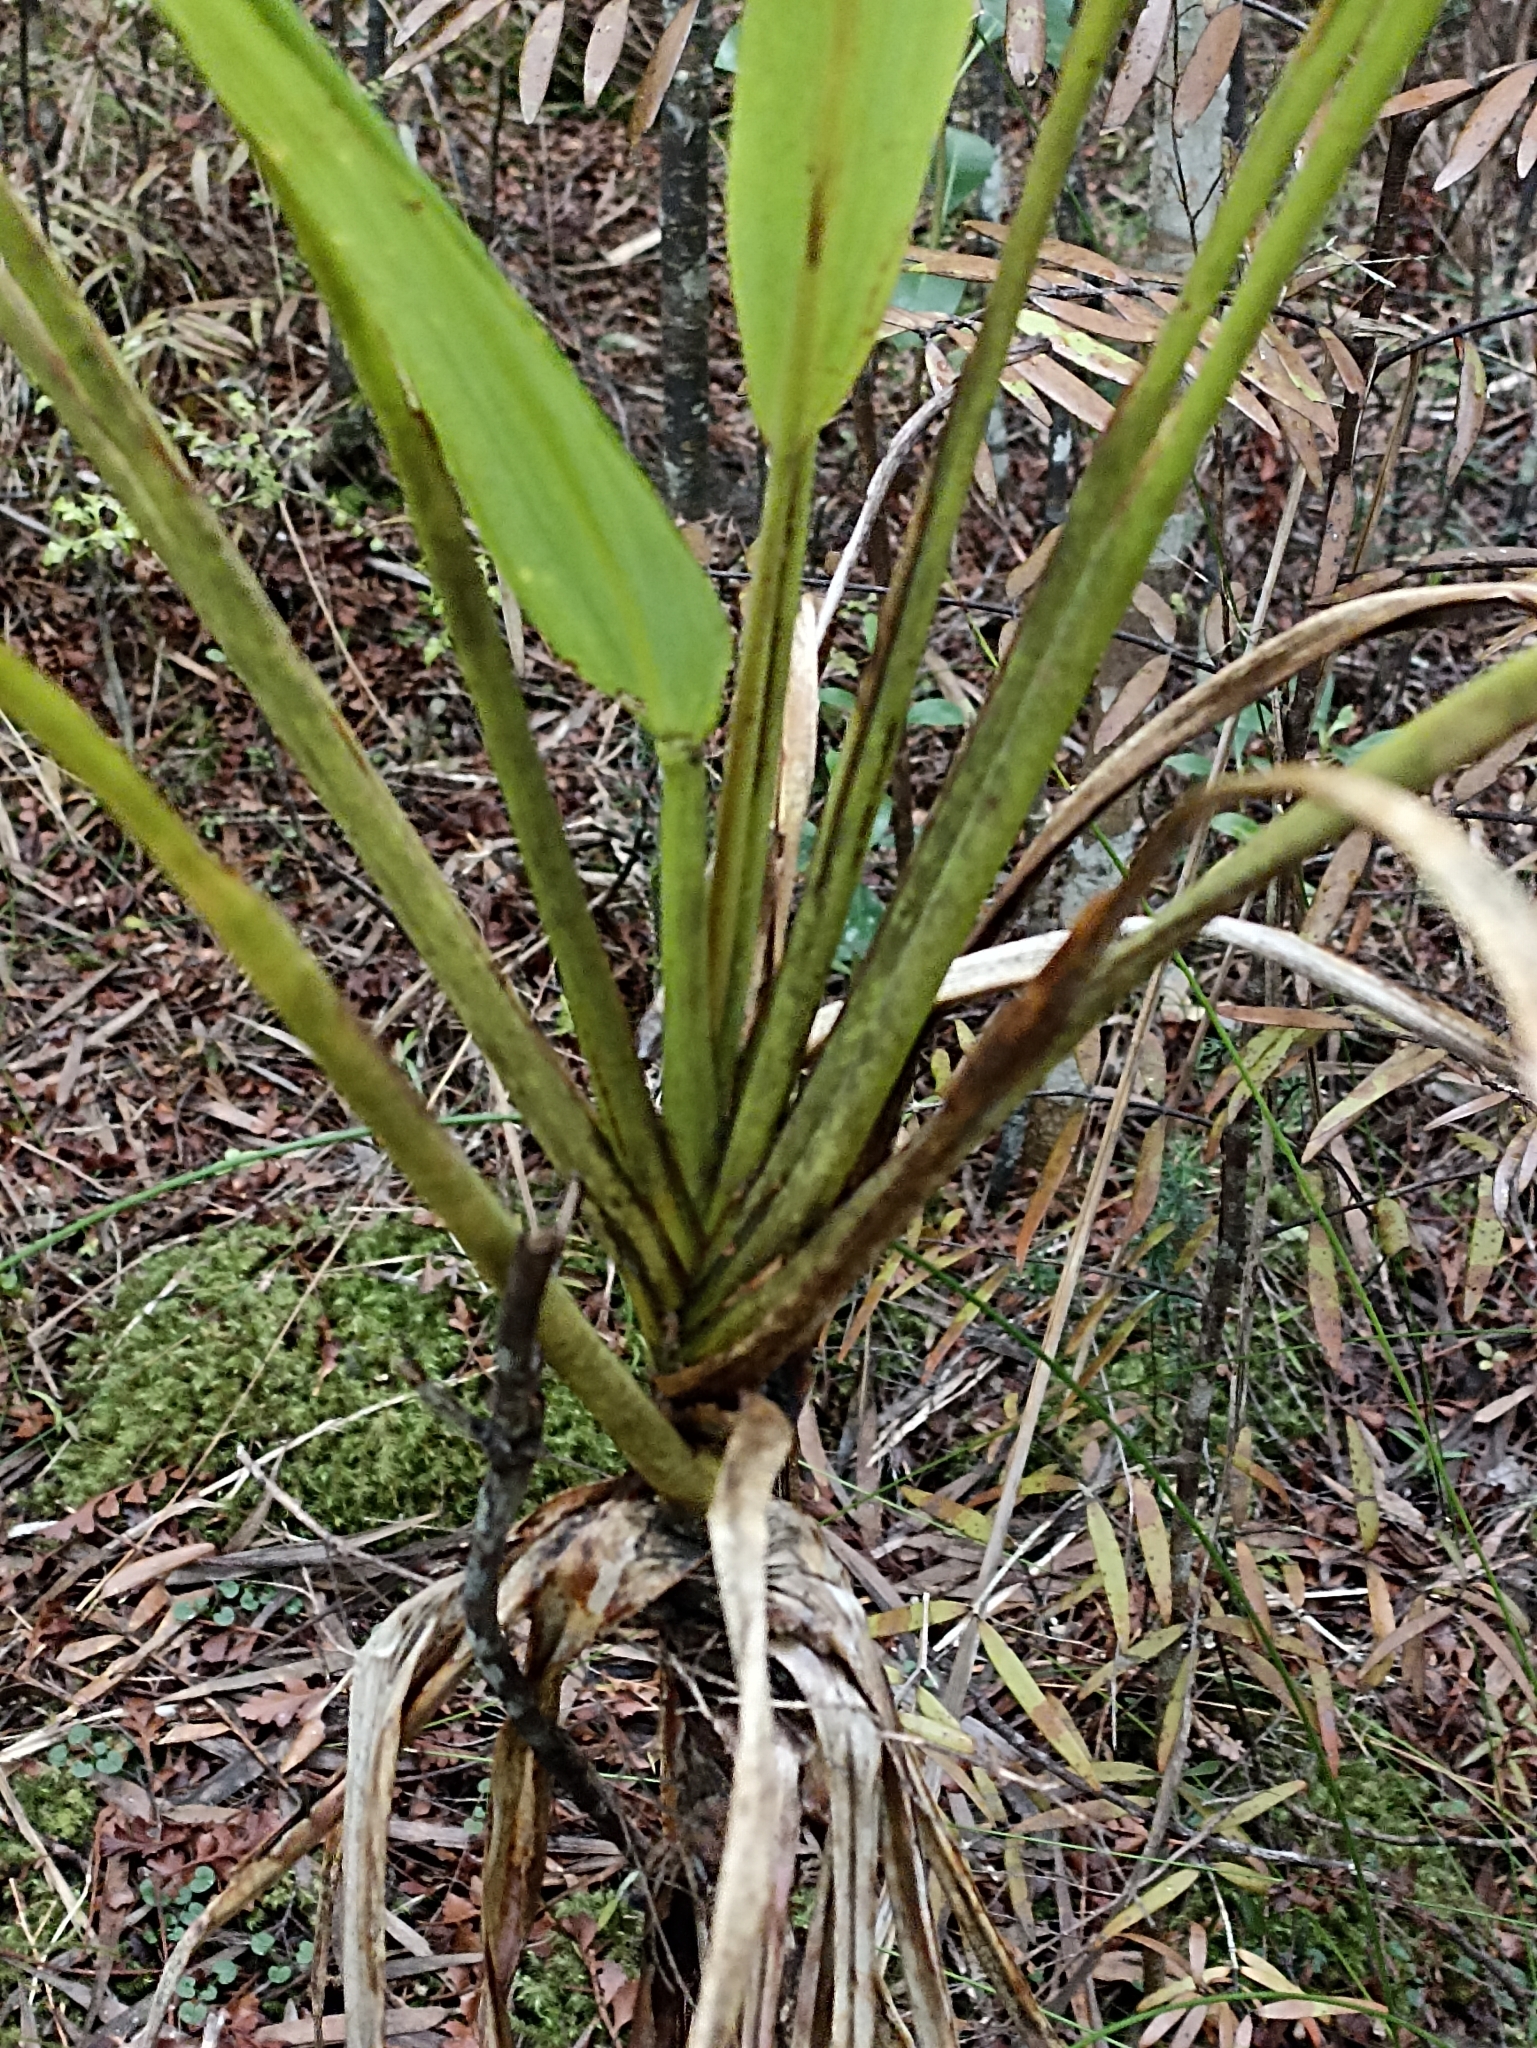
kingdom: Plantae
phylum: Tracheophyta
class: Liliopsida
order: Asparagales
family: Asparagaceae
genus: Cordyline
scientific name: Cordyline banksii
